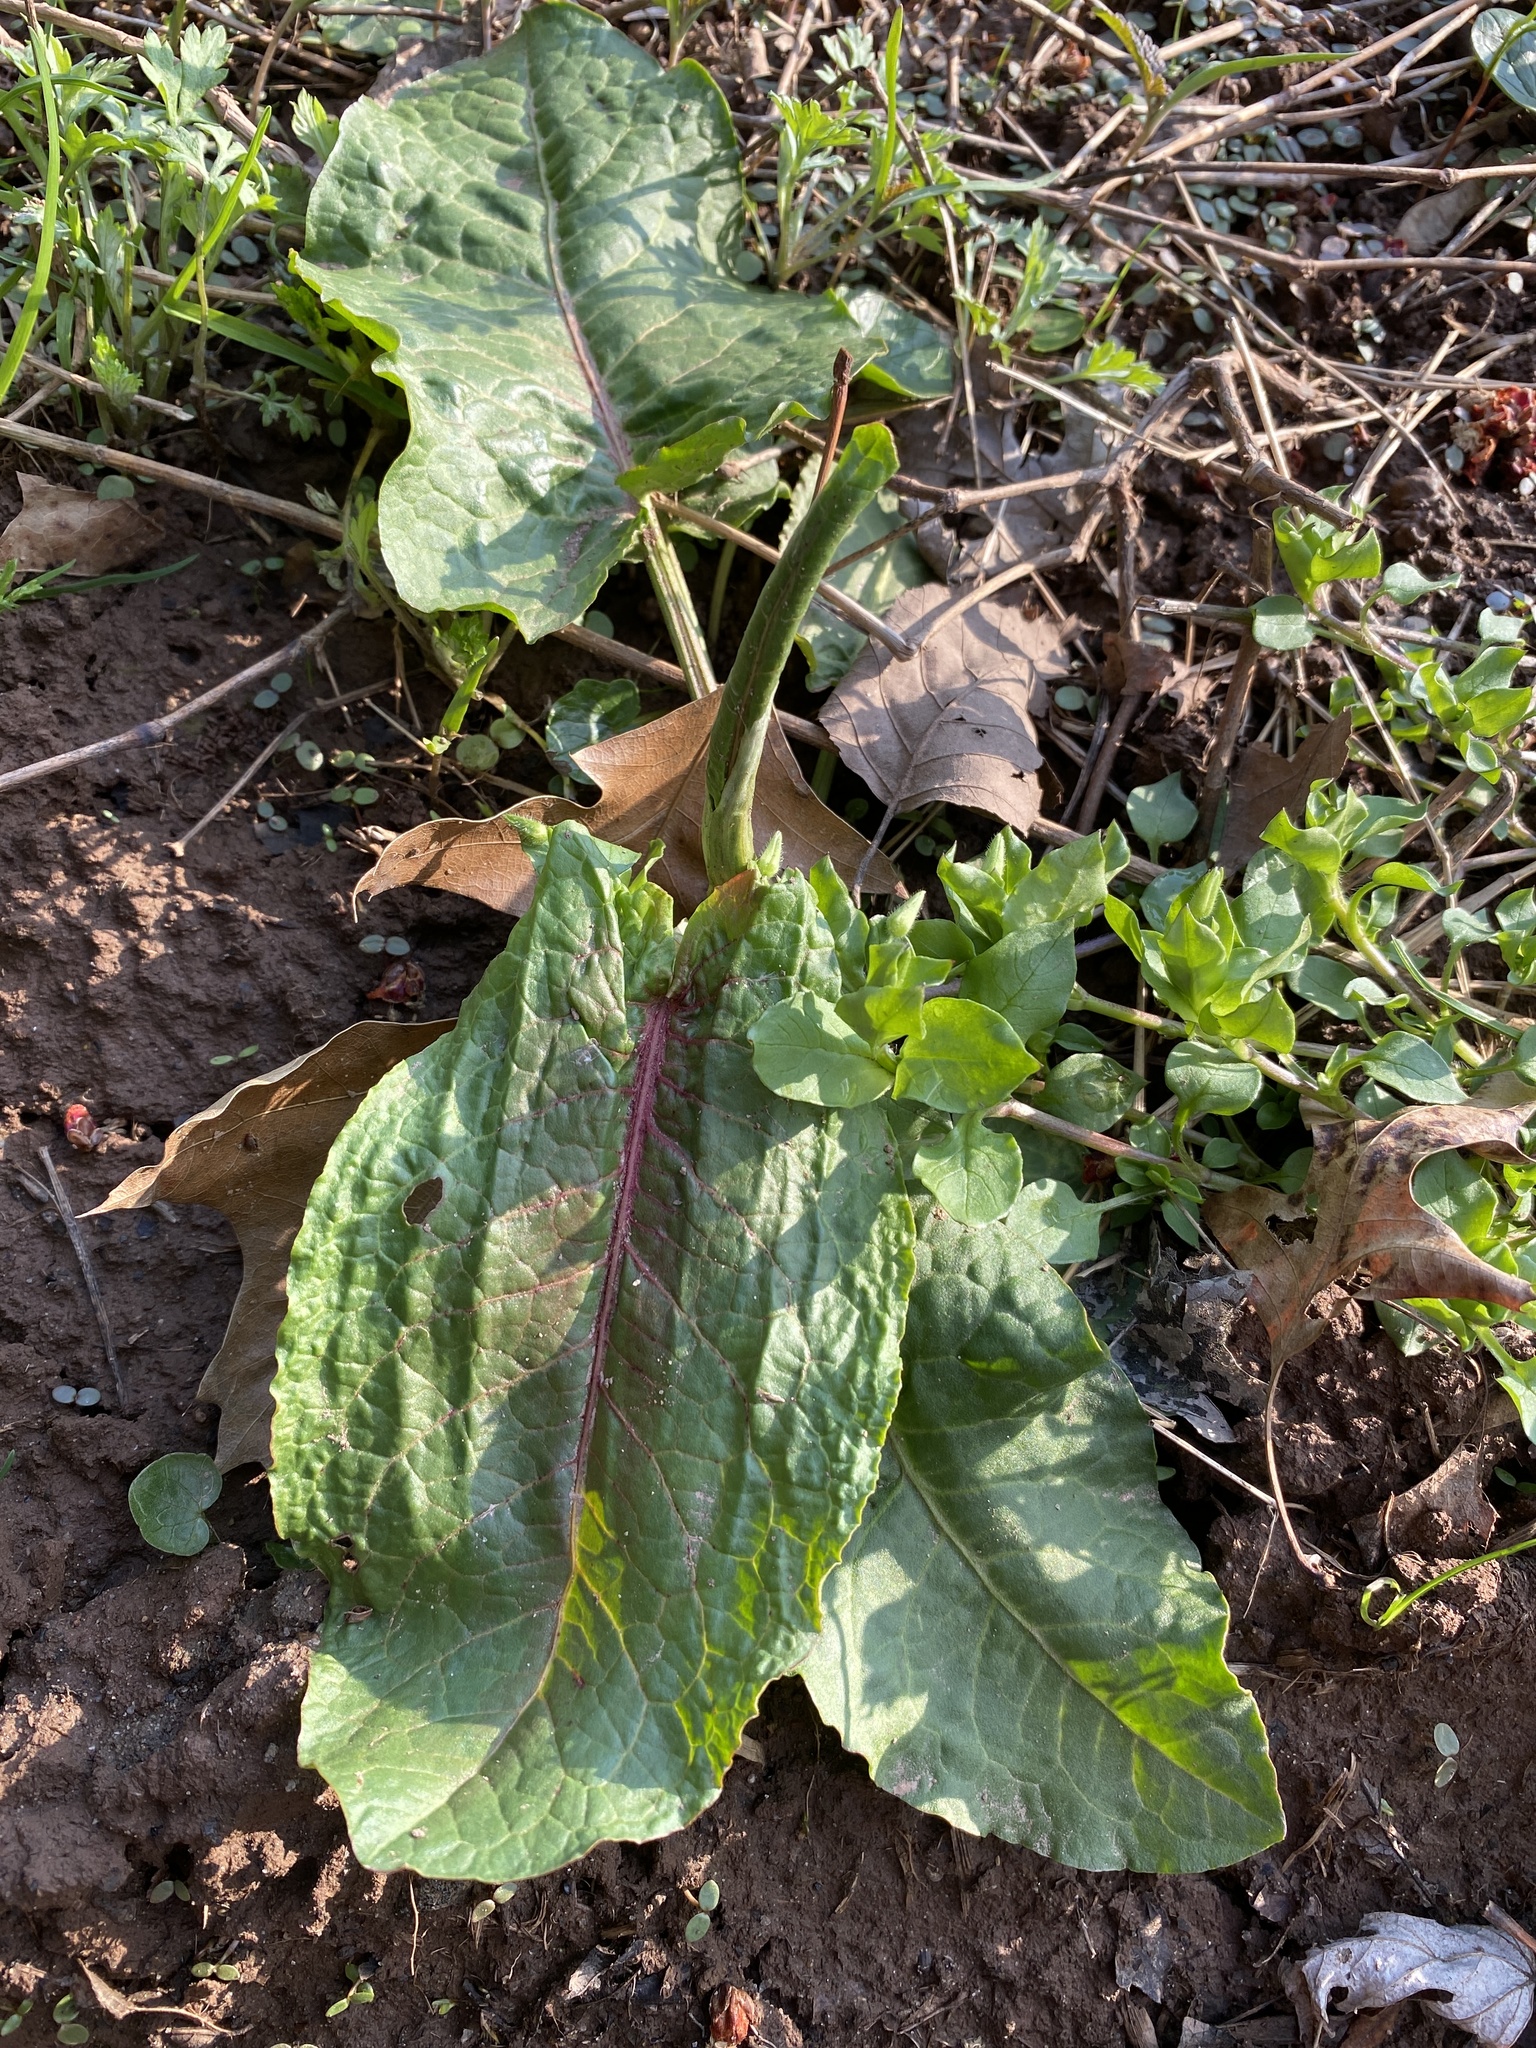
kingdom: Plantae
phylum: Tracheophyta
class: Magnoliopsida
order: Caryophyllales
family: Polygonaceae
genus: Rumex
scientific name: Rumex obtusifolius
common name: Bitter dock
